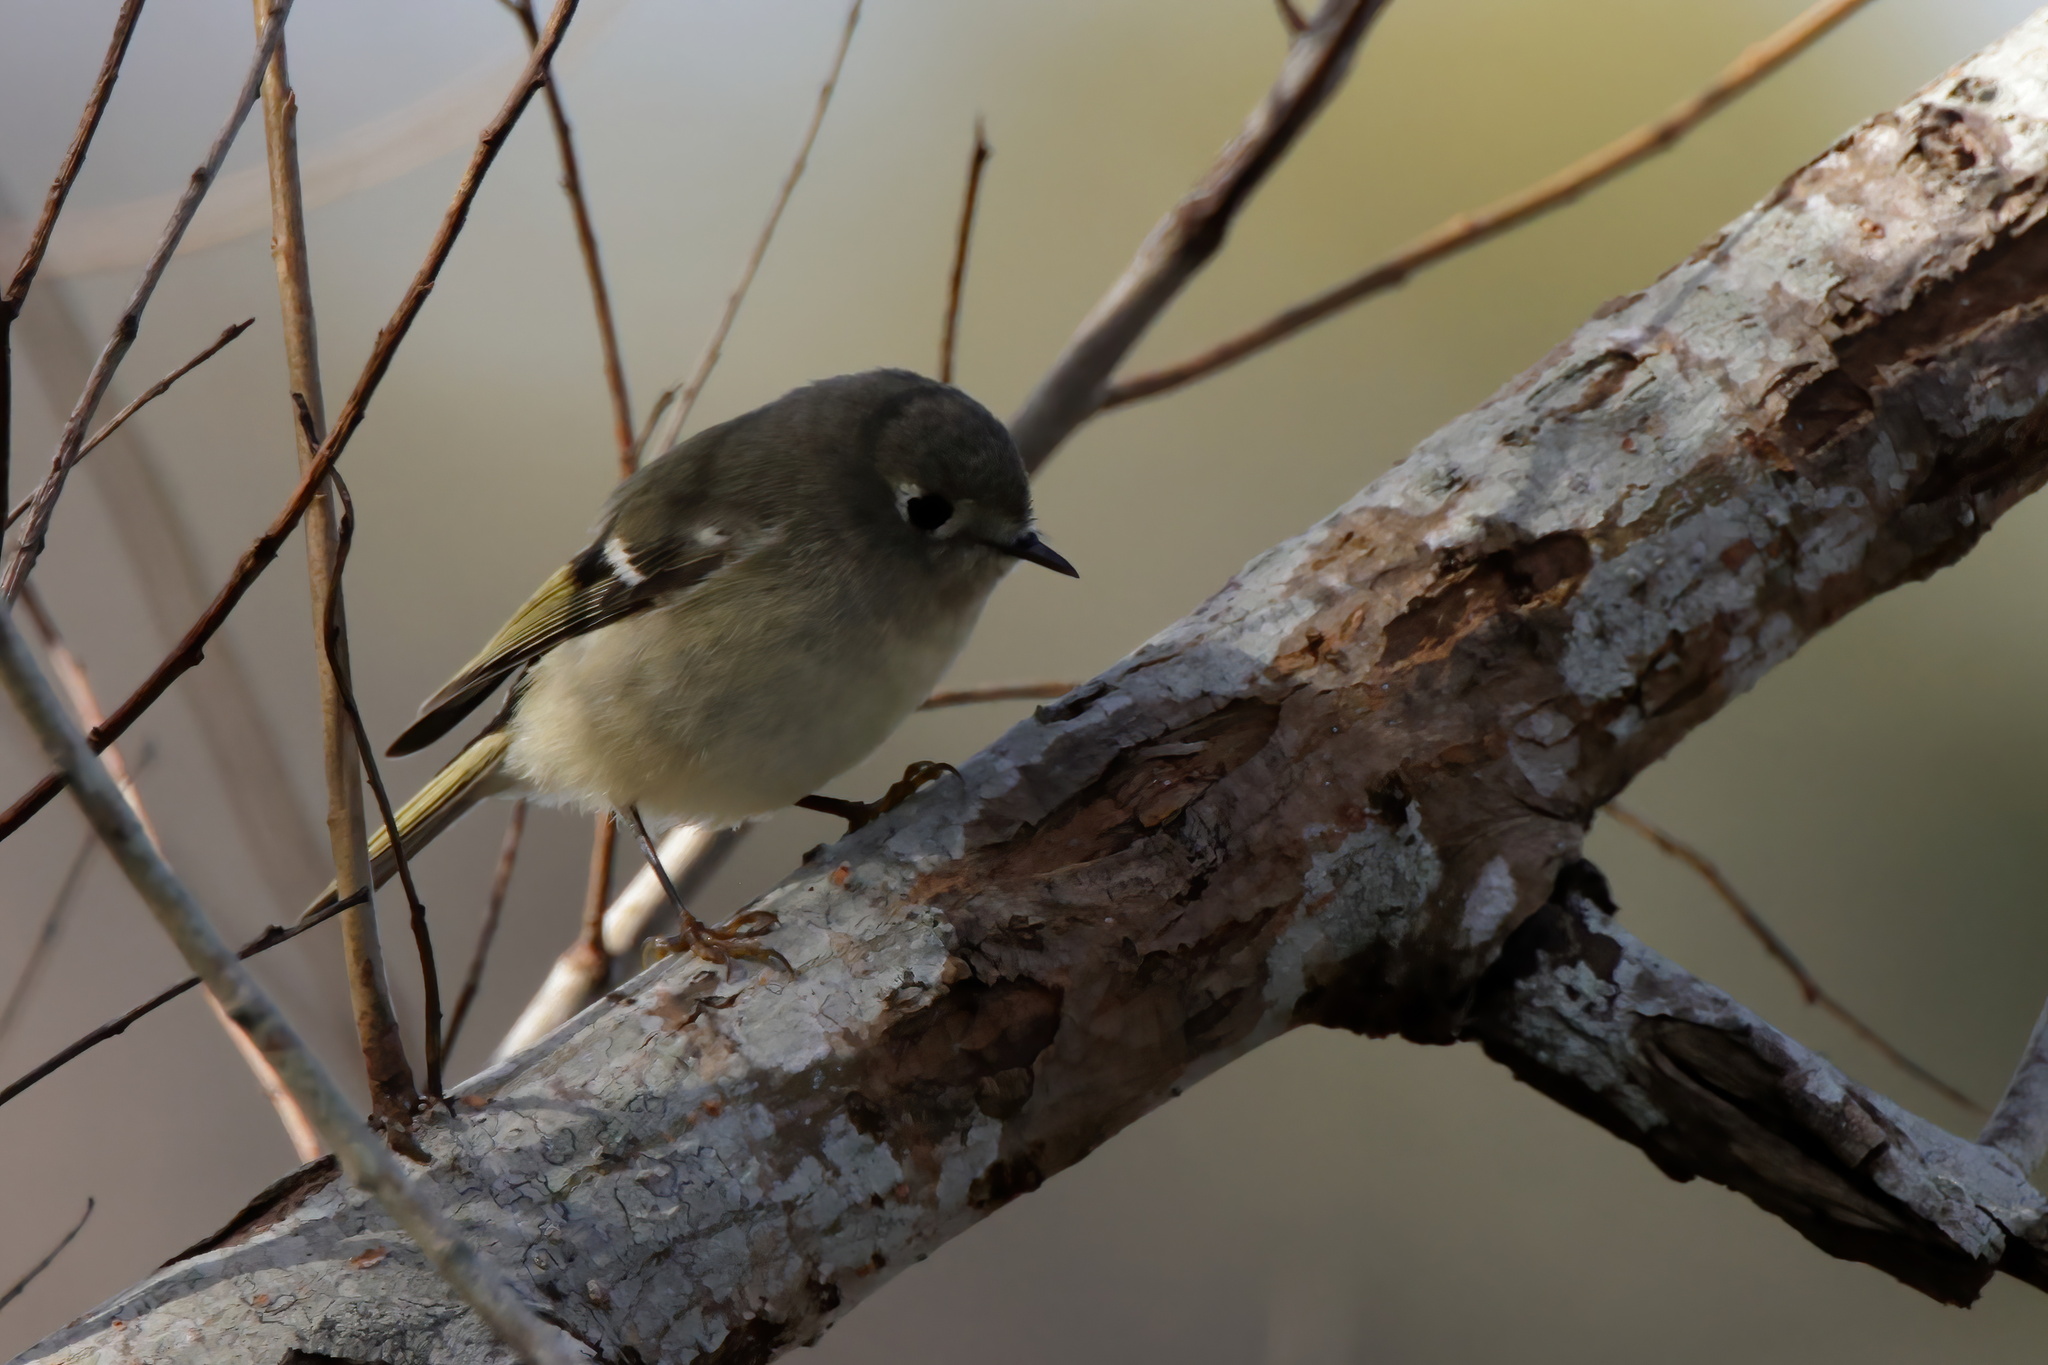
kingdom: Animalia
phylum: Chordata
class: Aves
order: Passeriformes
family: Regulidae
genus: Regulus
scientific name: Regulus calendula
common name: Ruby-crowned kinglet
